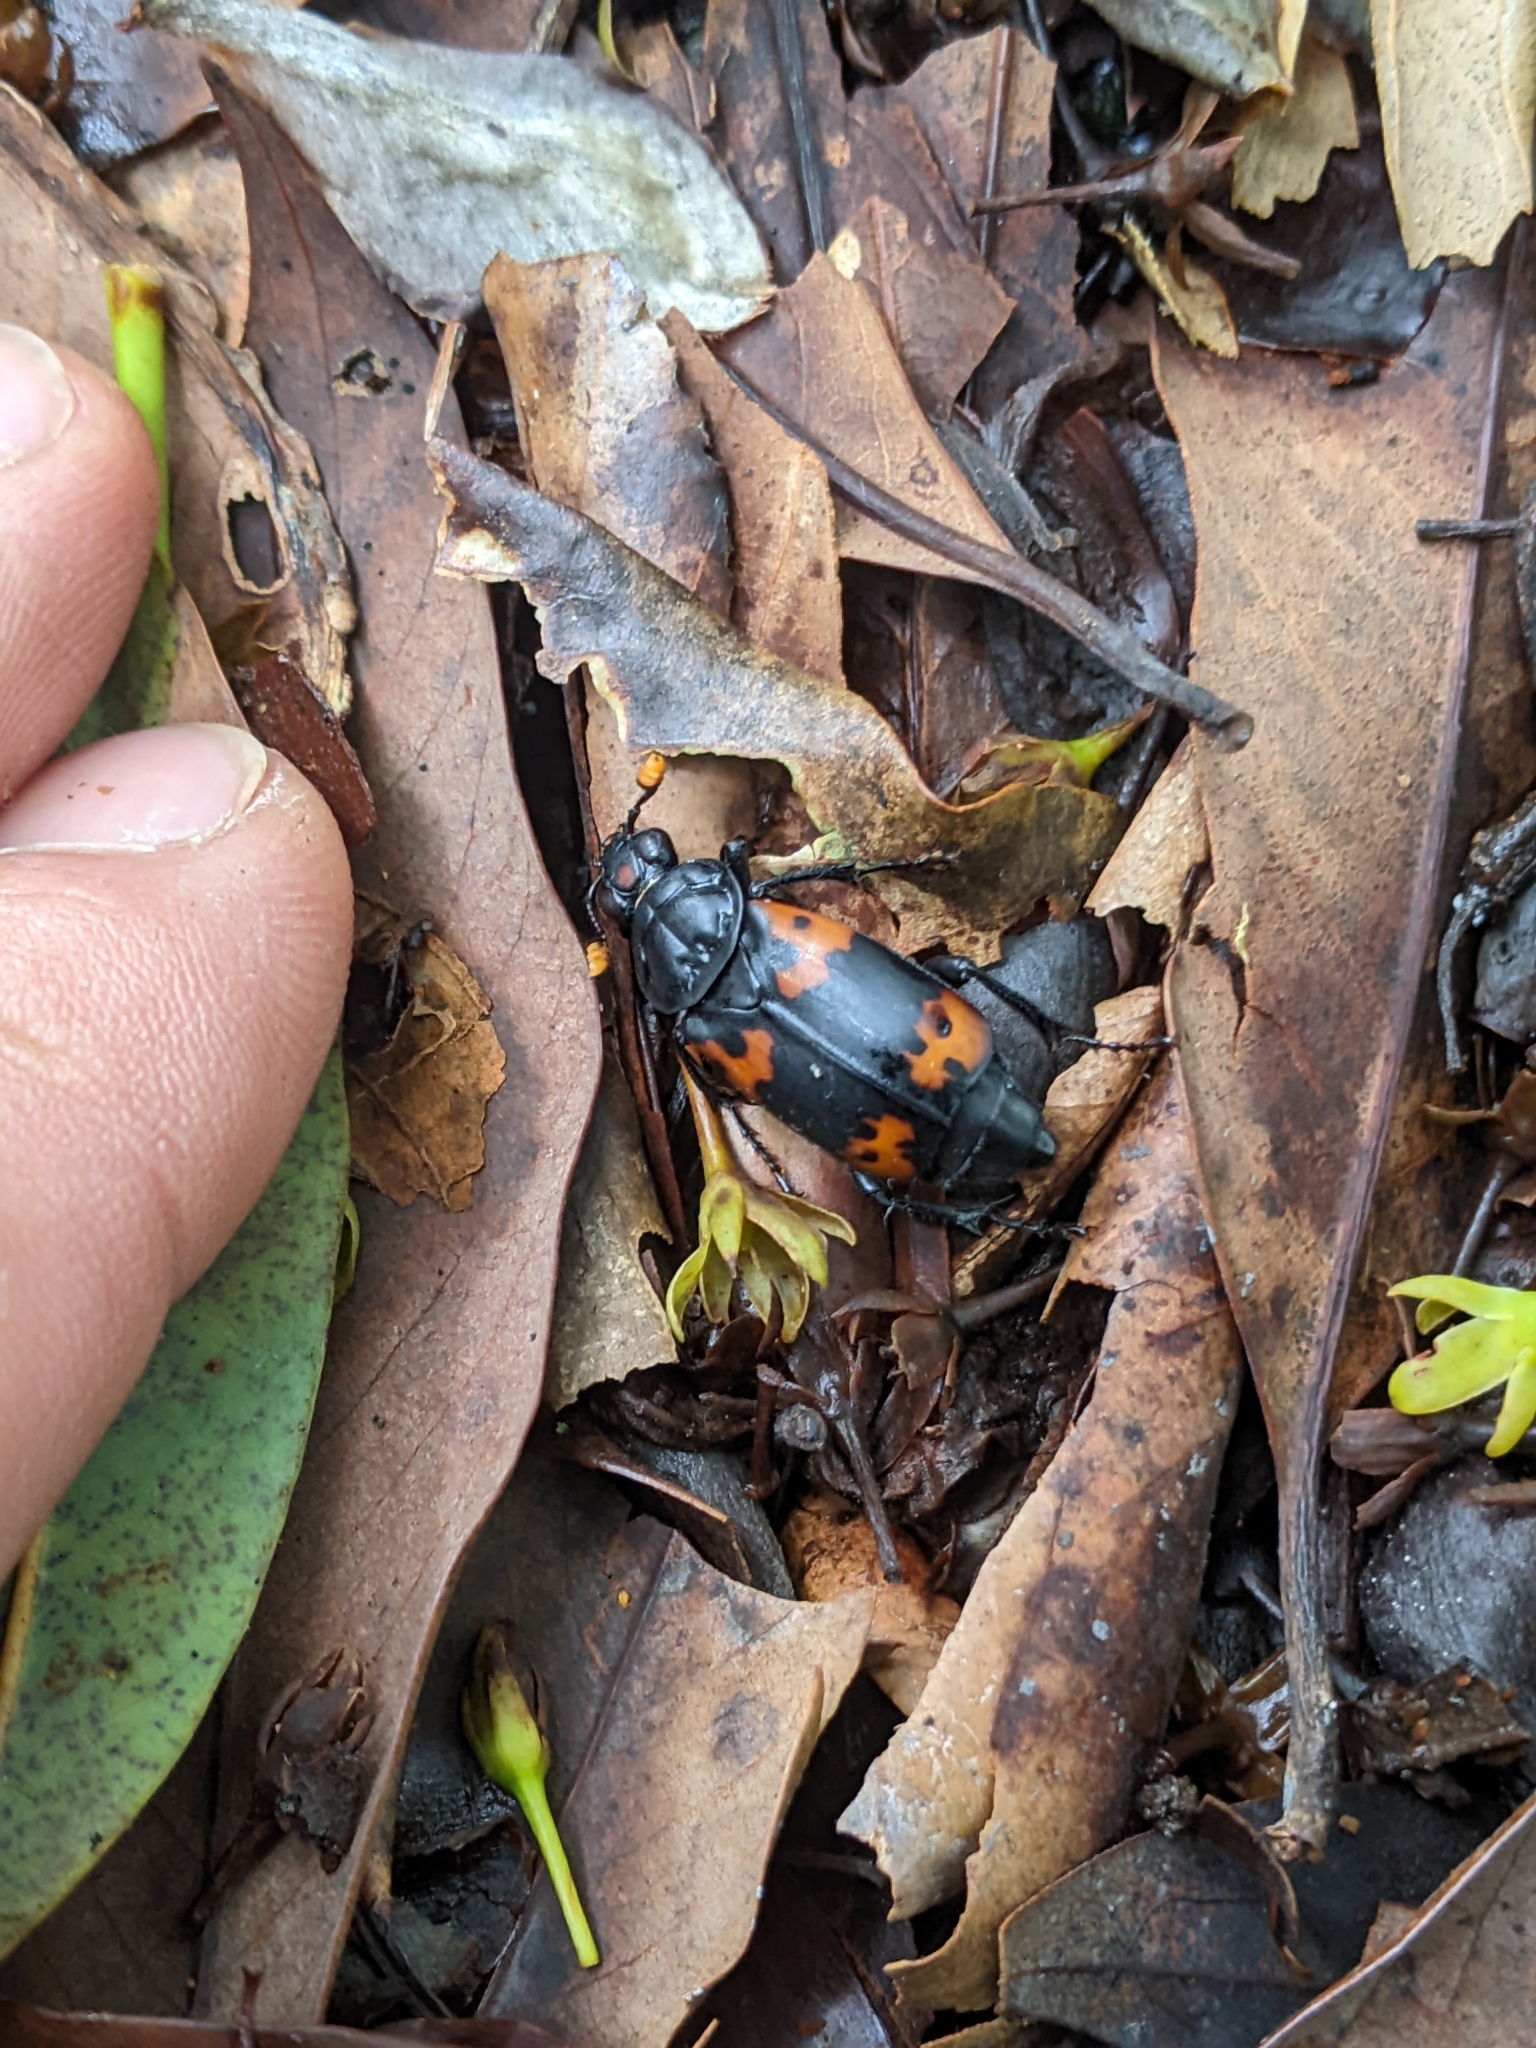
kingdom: Animalia
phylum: Arthropoda
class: Insecta
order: Coleoptera
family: Staphylinidae
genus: Nicrophorus
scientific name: Nicrophorus nepalensis
